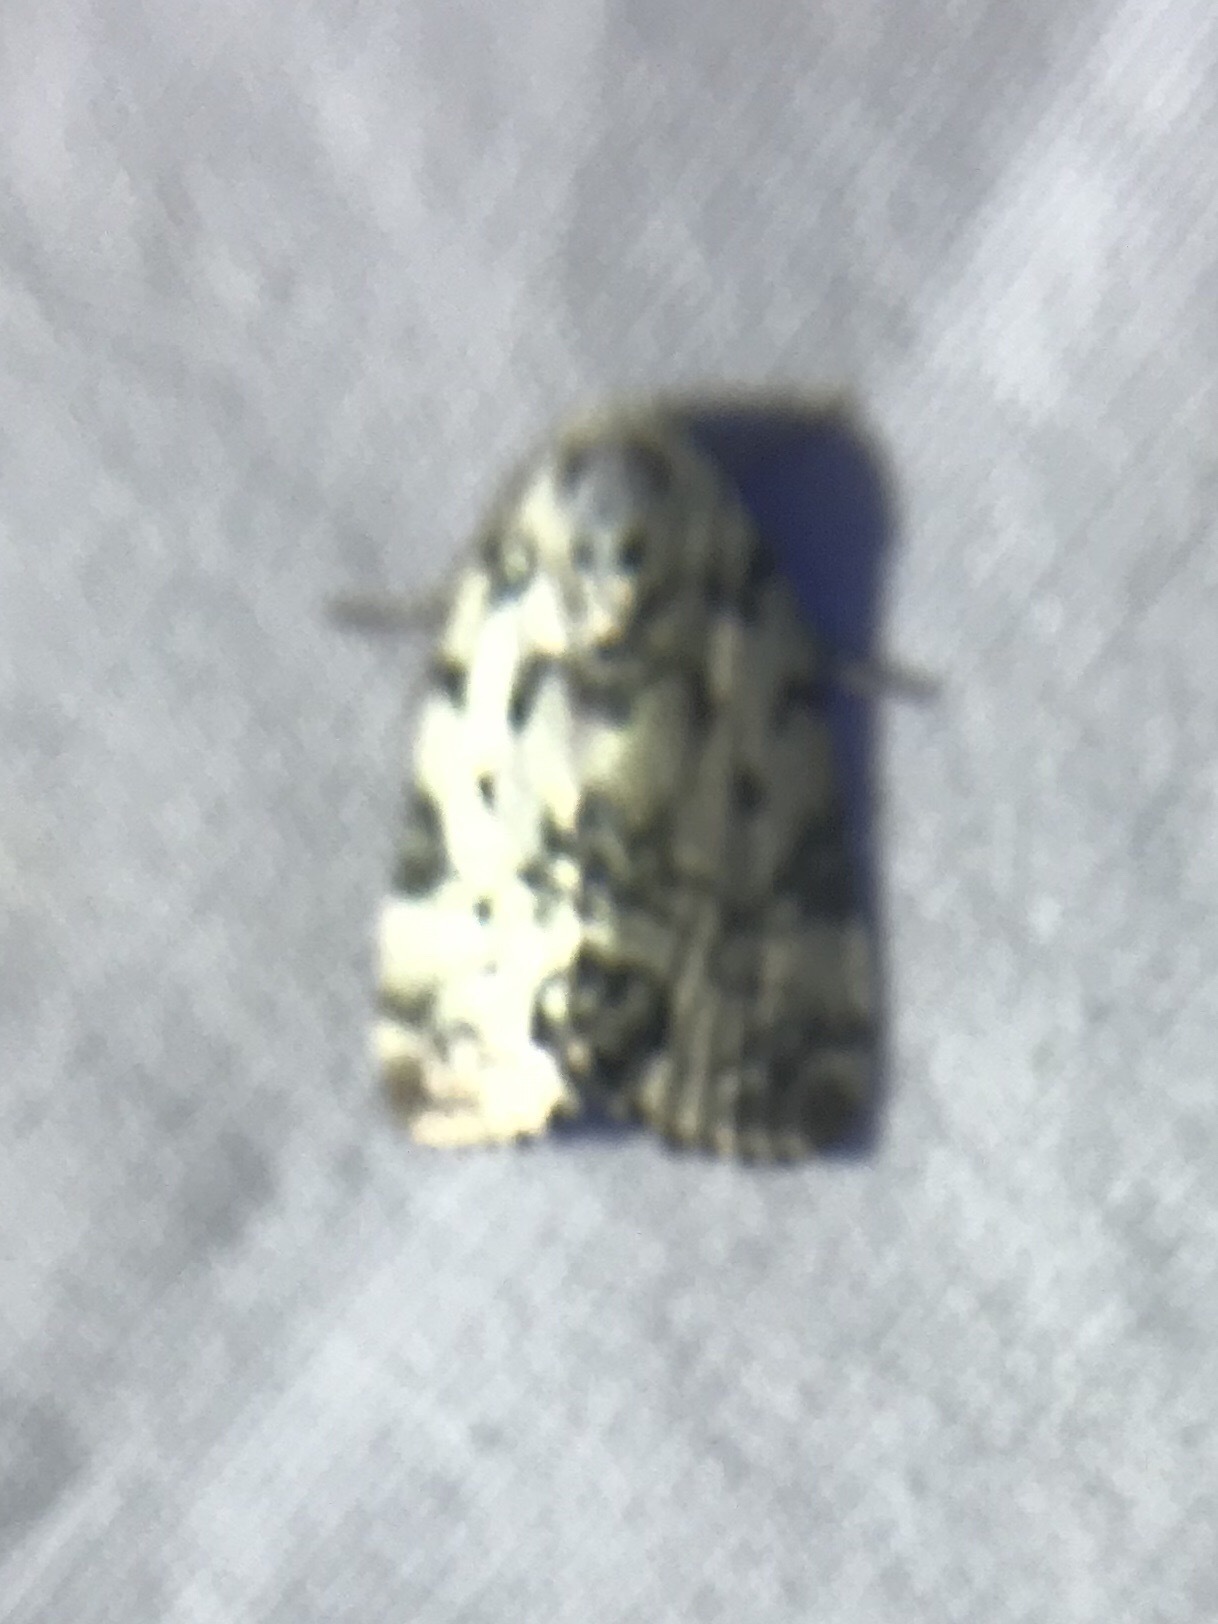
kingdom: Animalia
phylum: Arthropoda
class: Insecta
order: Lepidoptera
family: Noctuidae
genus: Polygrammate
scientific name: Polygrammate hebraeicum
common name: Hebrew moth
